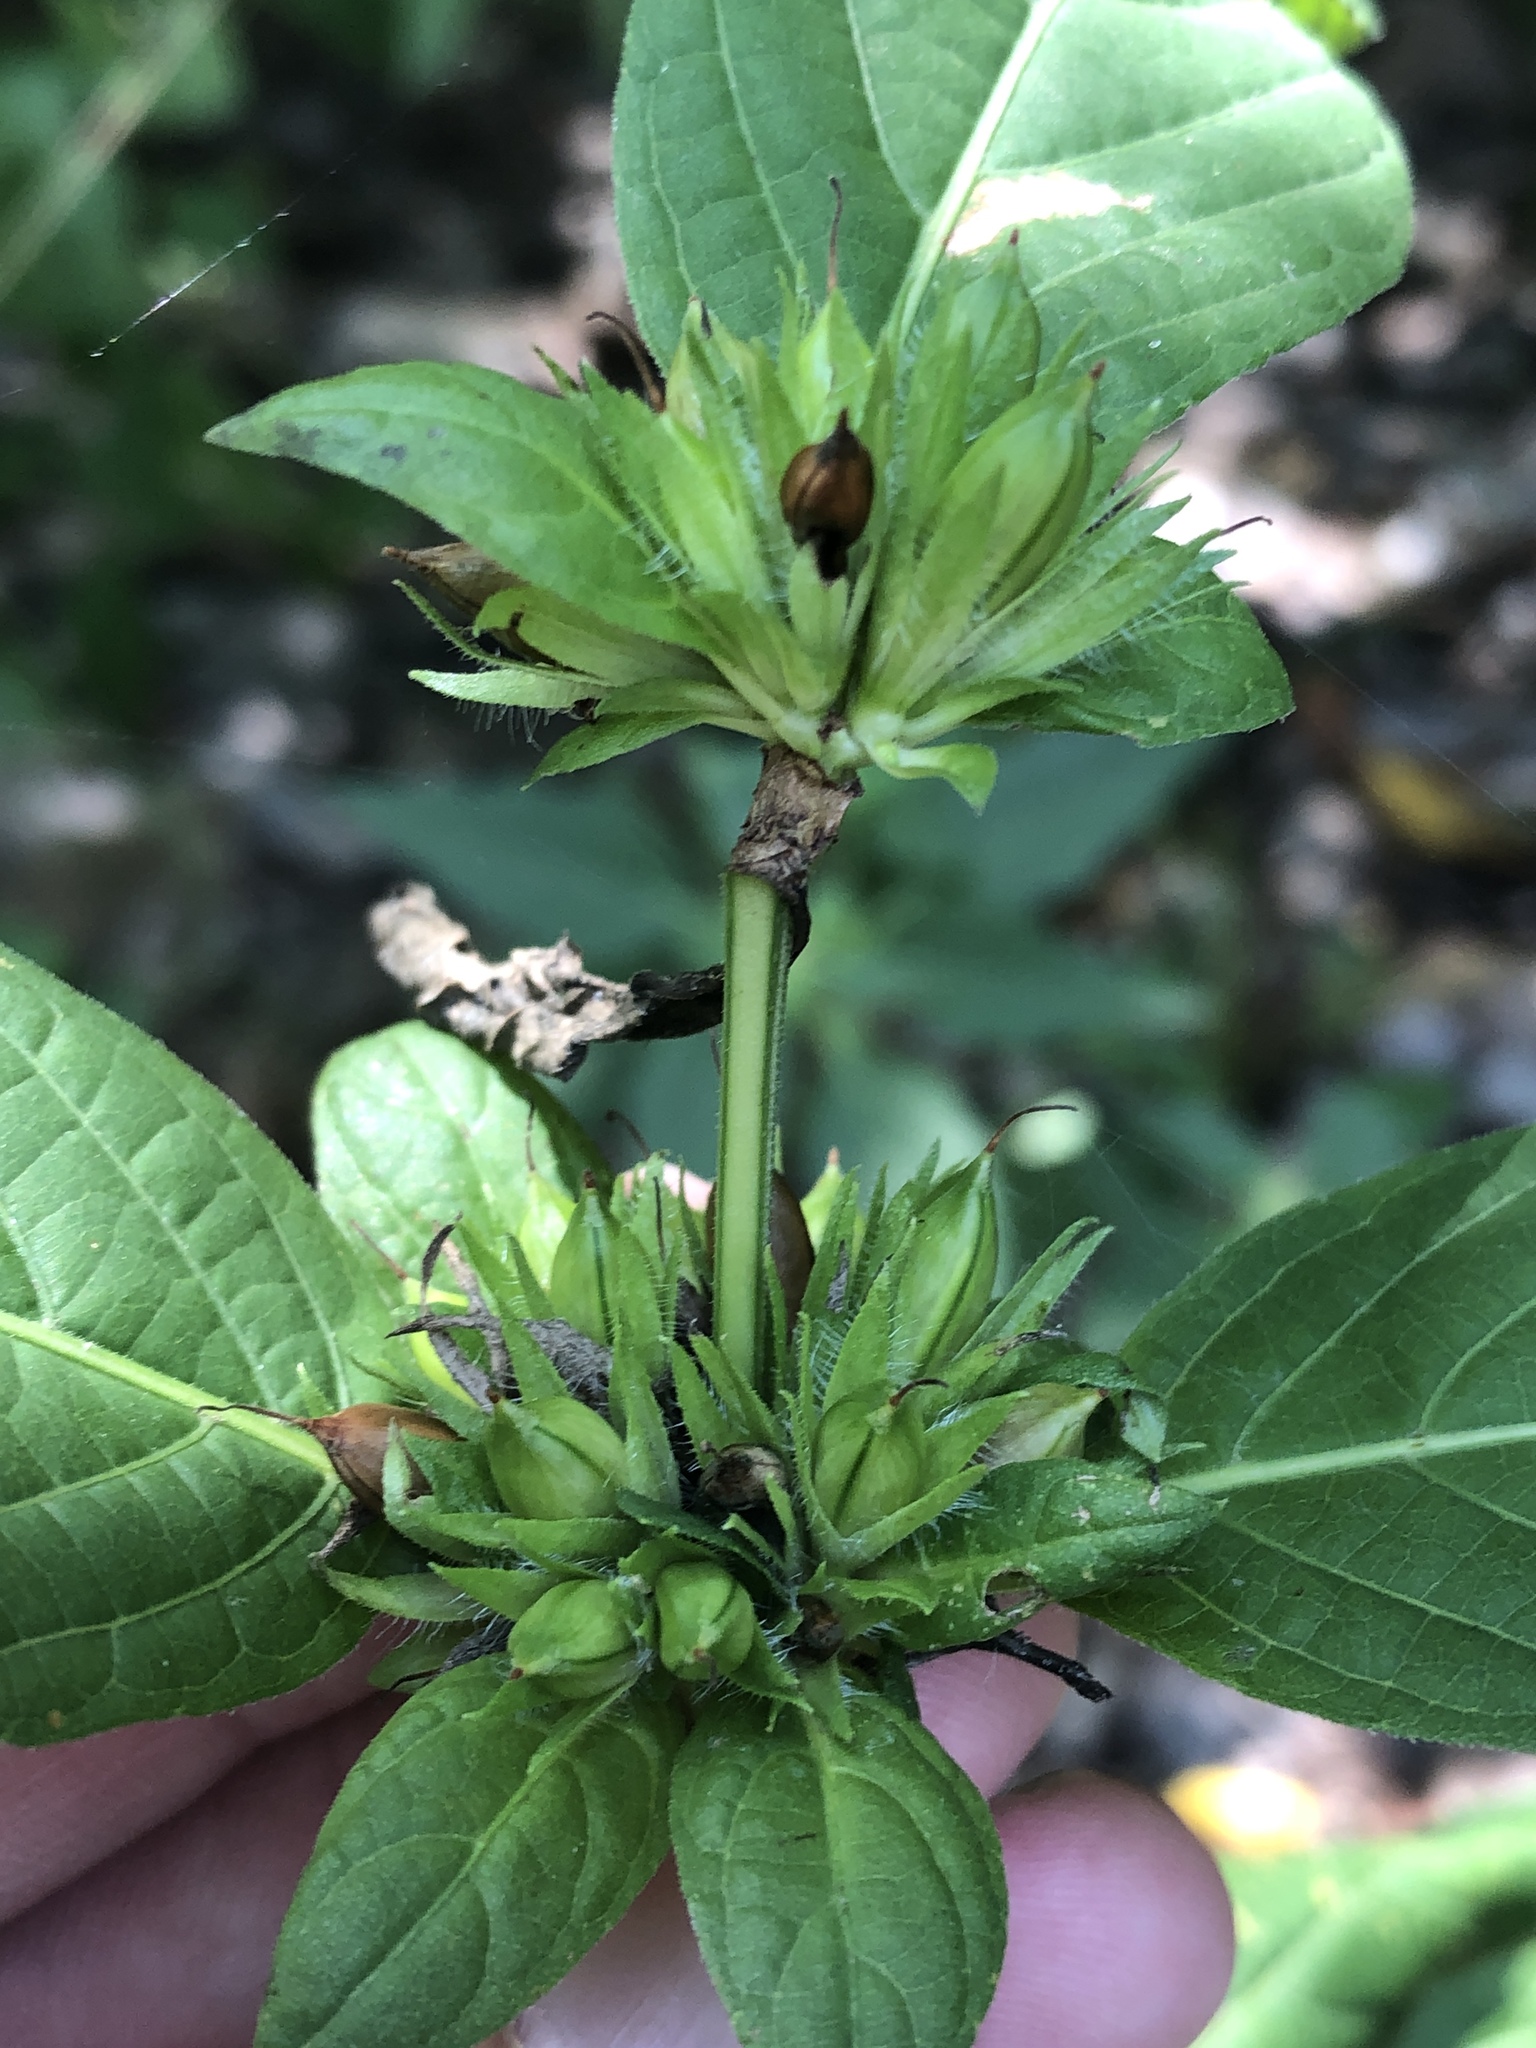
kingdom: Plantae
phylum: Tracheophyta
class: Magnoliopsida
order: Lamiales
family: Acanthaceae
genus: Ruellia
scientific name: Ruellia strepens
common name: Limestone wild petunia
